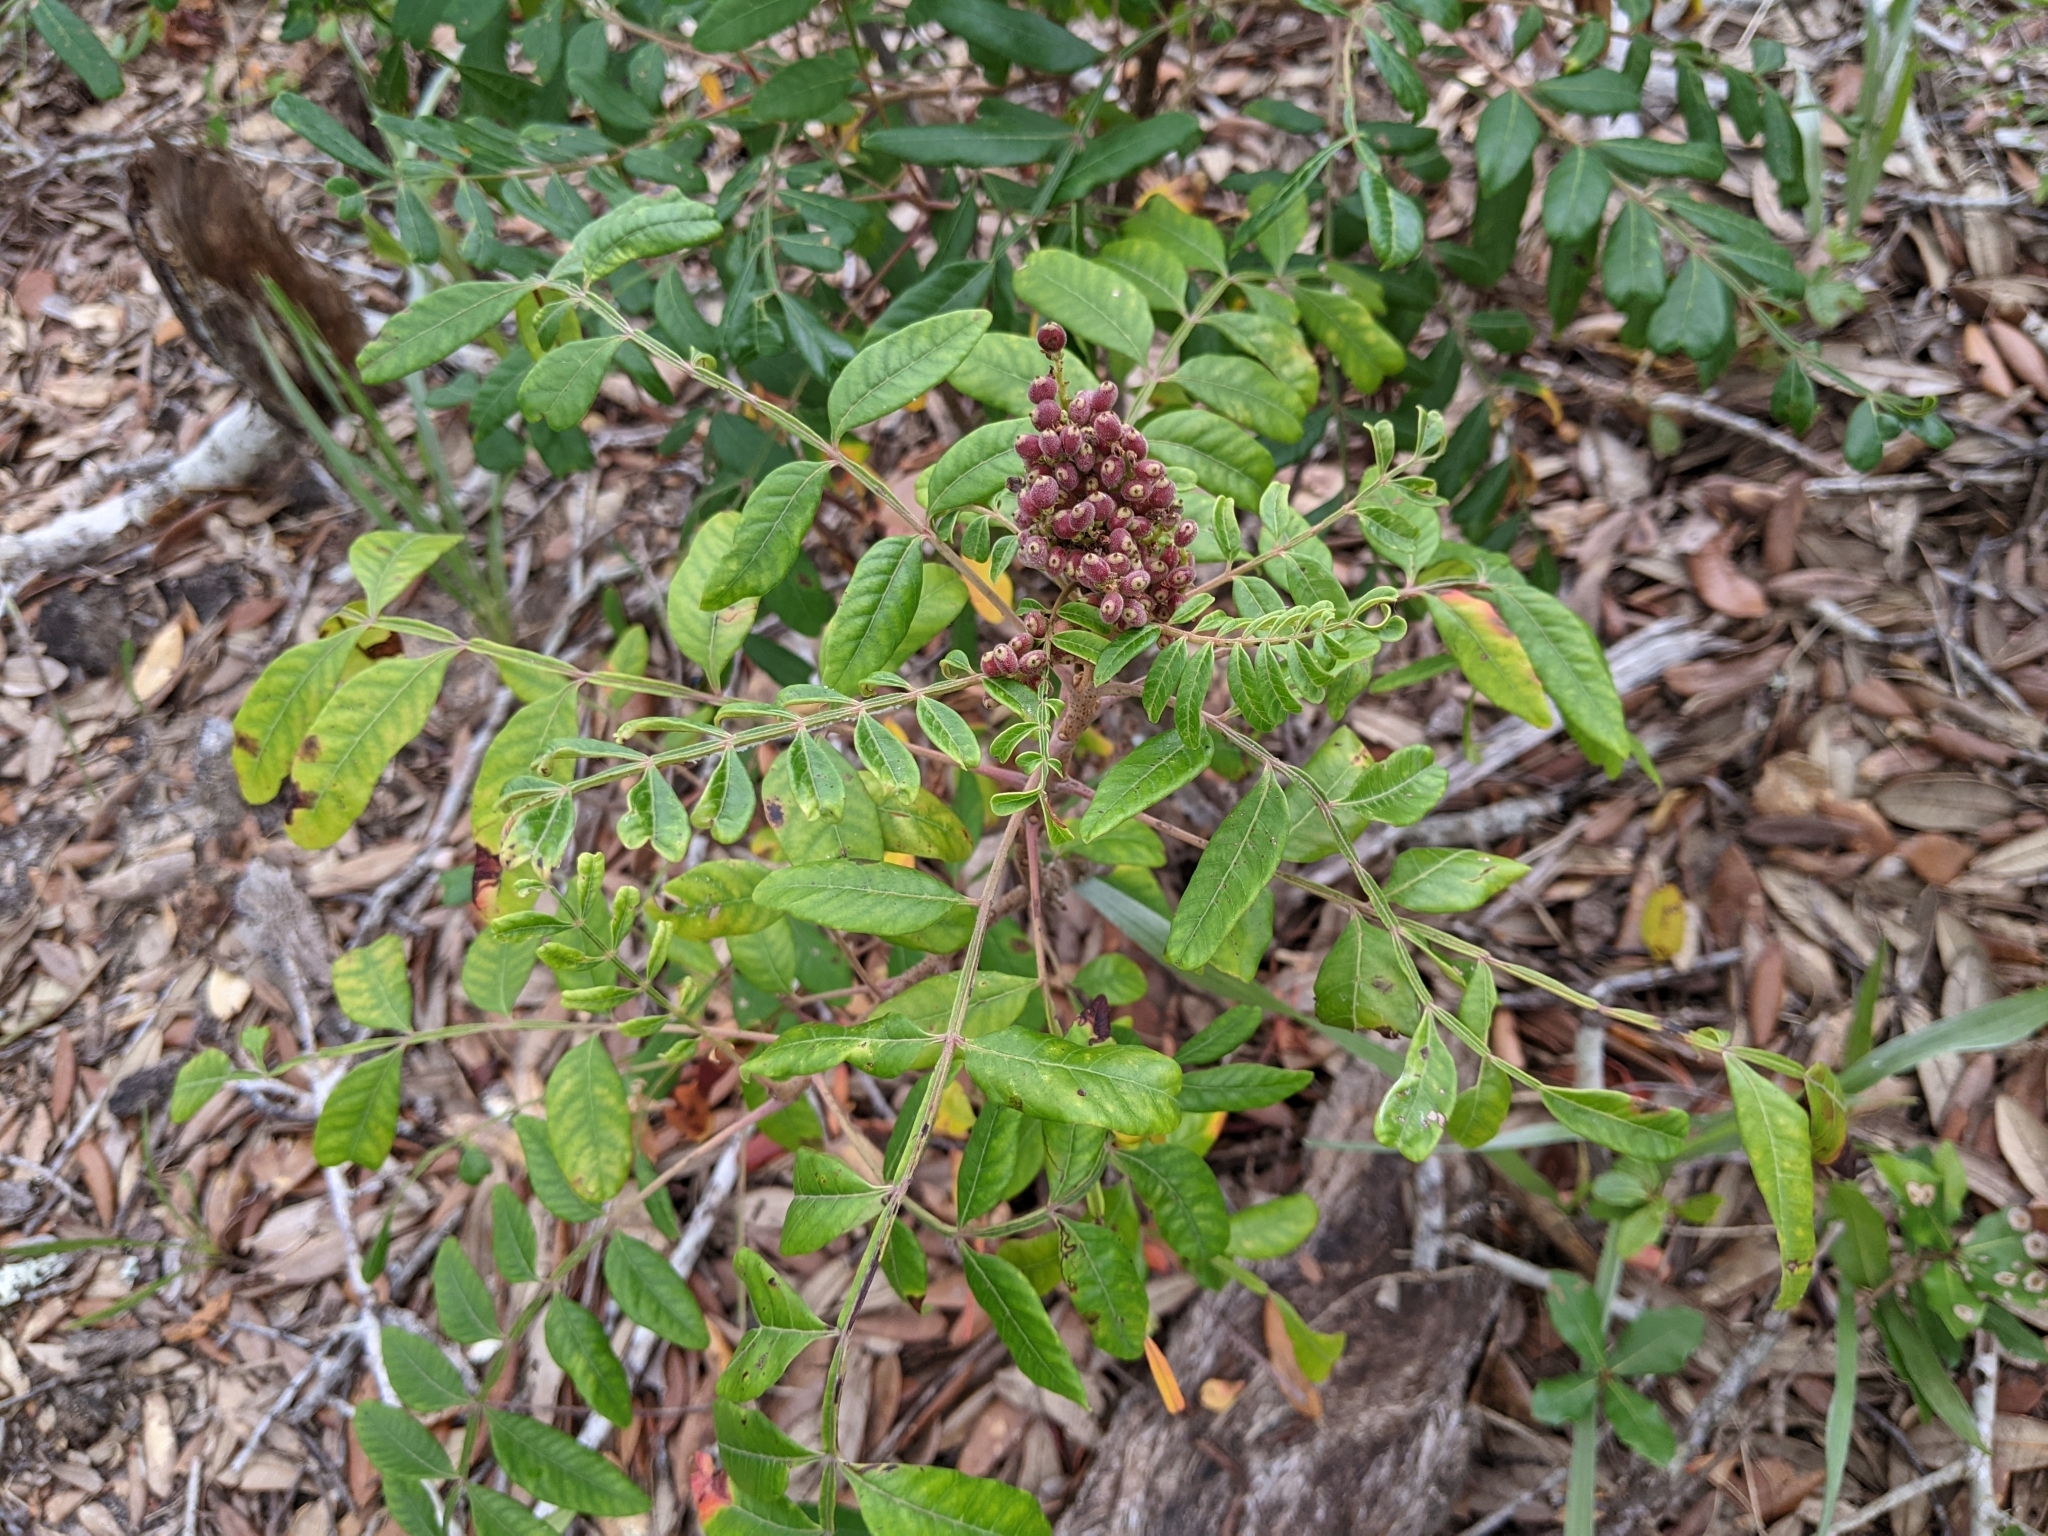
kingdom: Plantae
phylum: Tracheophyta
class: Magnoliopsida
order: Sapindales
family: Anacardiaceae
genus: Rhus
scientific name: Rhus copallina
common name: Shining sumac
